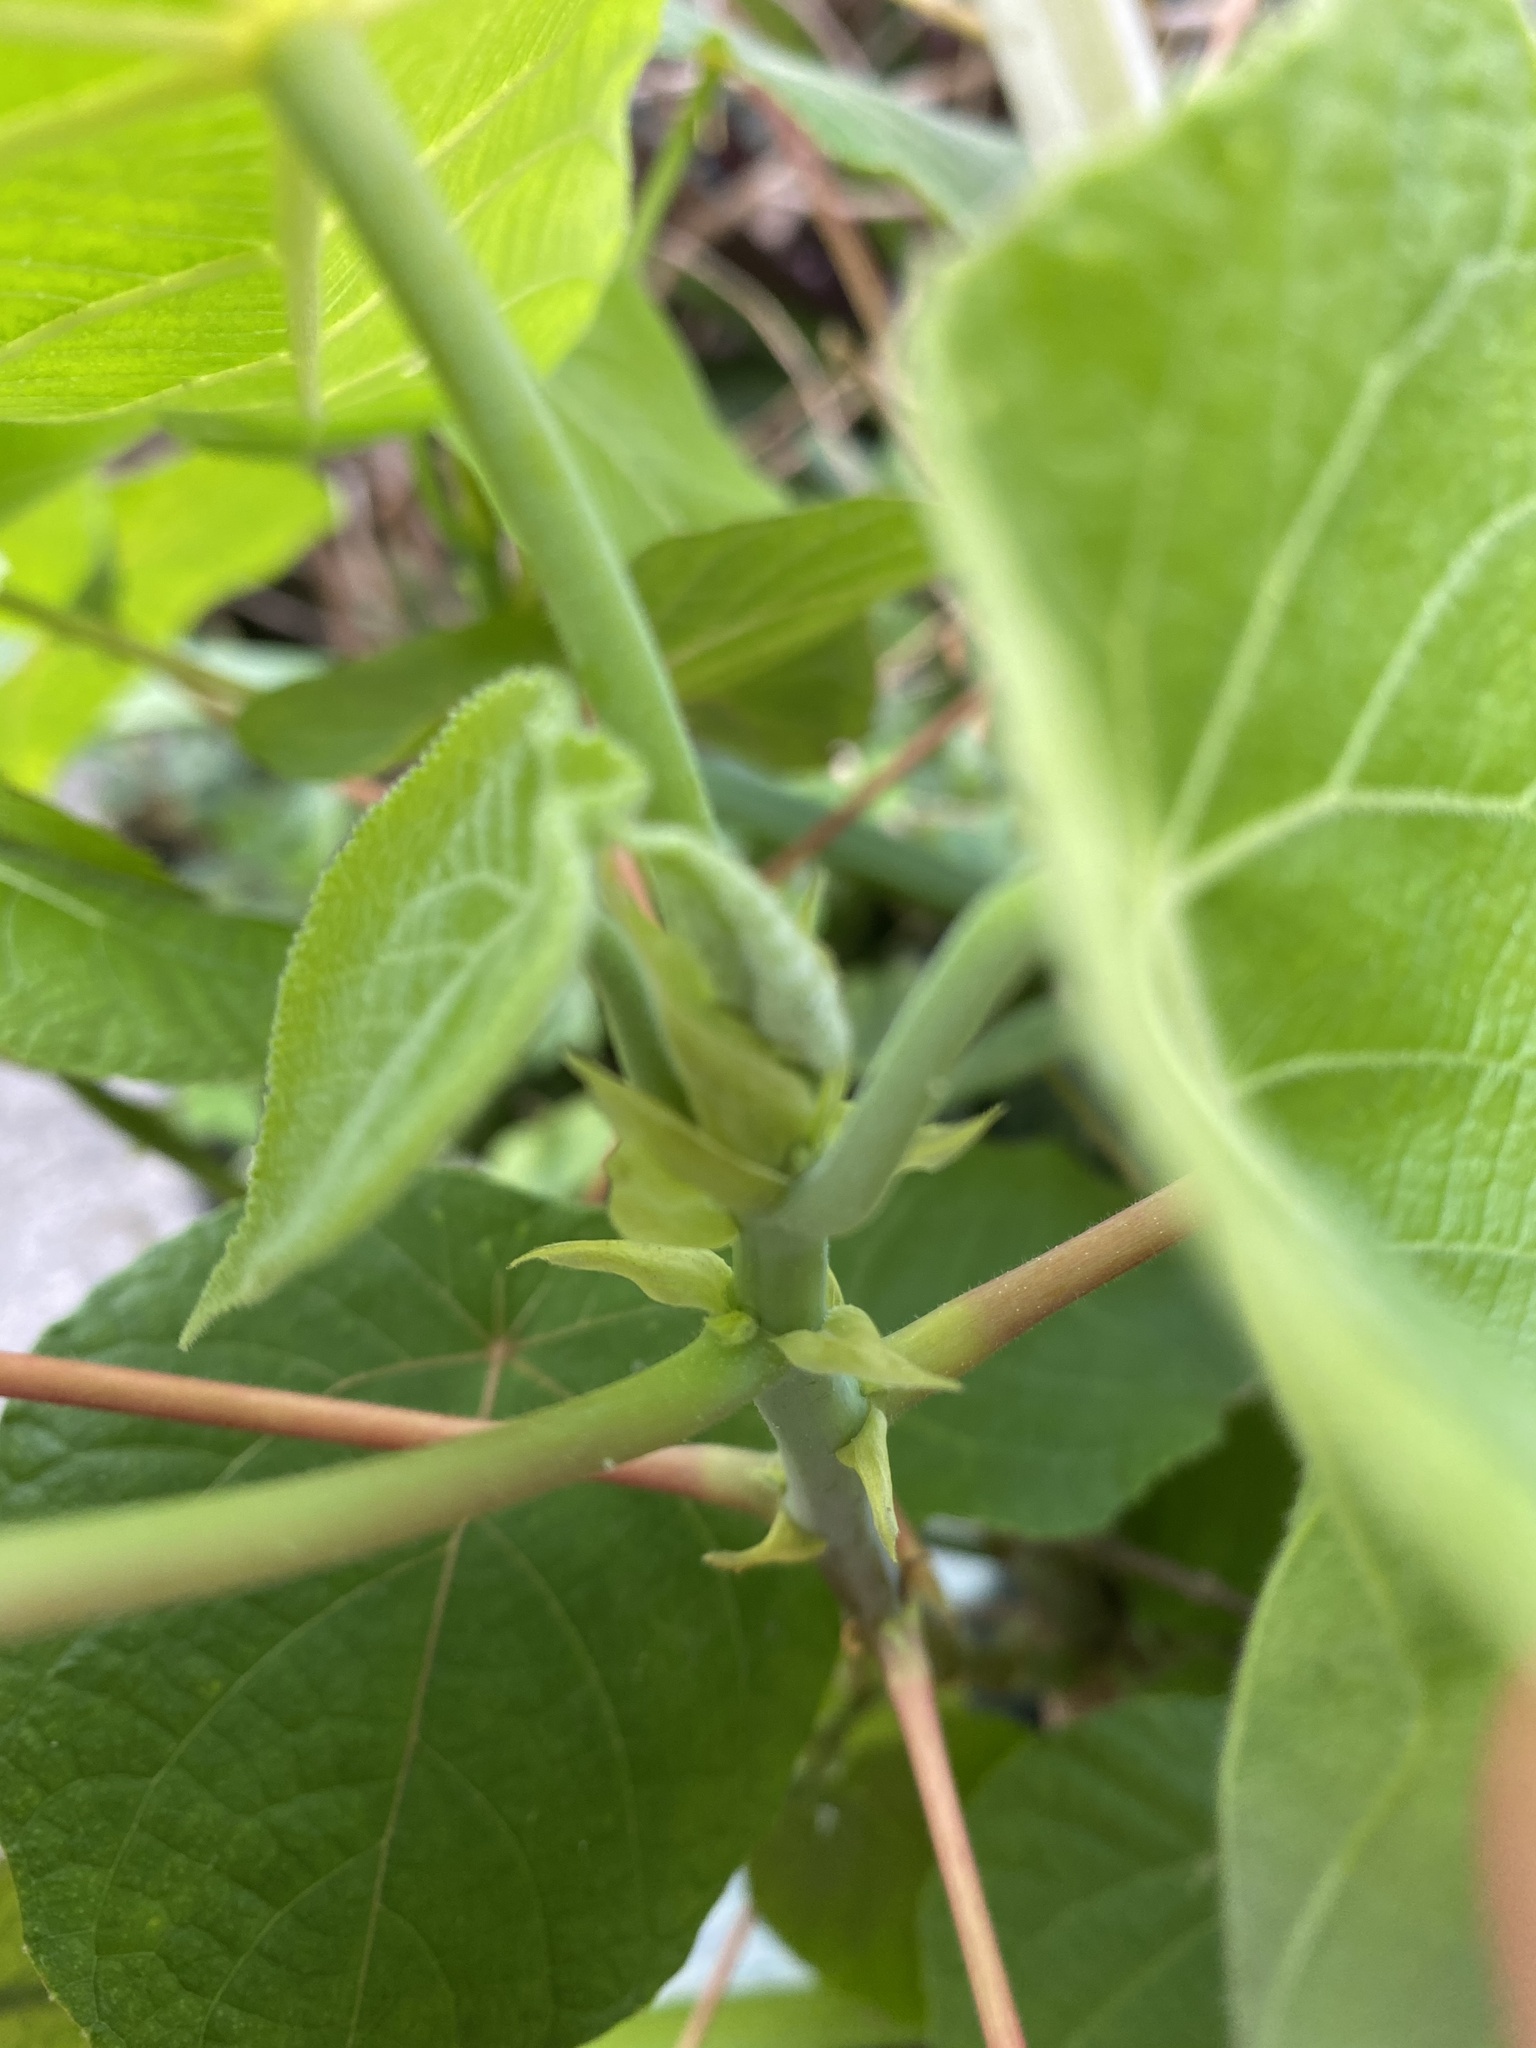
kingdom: Plantae
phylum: Tracheophyta
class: Magnoliopsida
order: Malpighiales
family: Euphorbiaceae
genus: Macaranga
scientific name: Macaranga tanarius
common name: Parasol leaf tree
